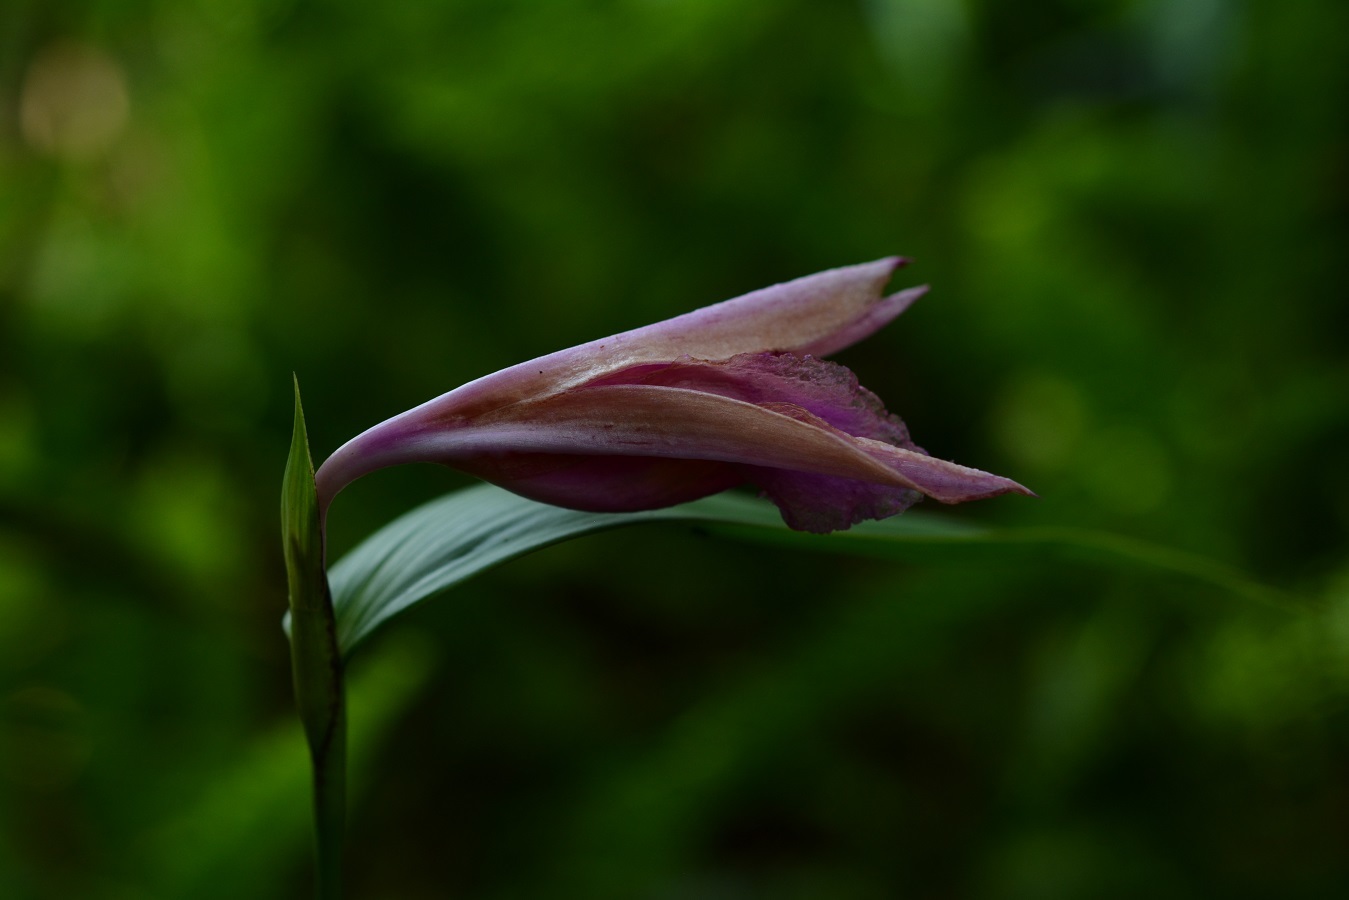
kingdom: Plantae
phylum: Tracheophyta
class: Liliopsida
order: Asparagales
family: Orchidaceae
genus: Sobralia
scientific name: Sobralia macdougallii
